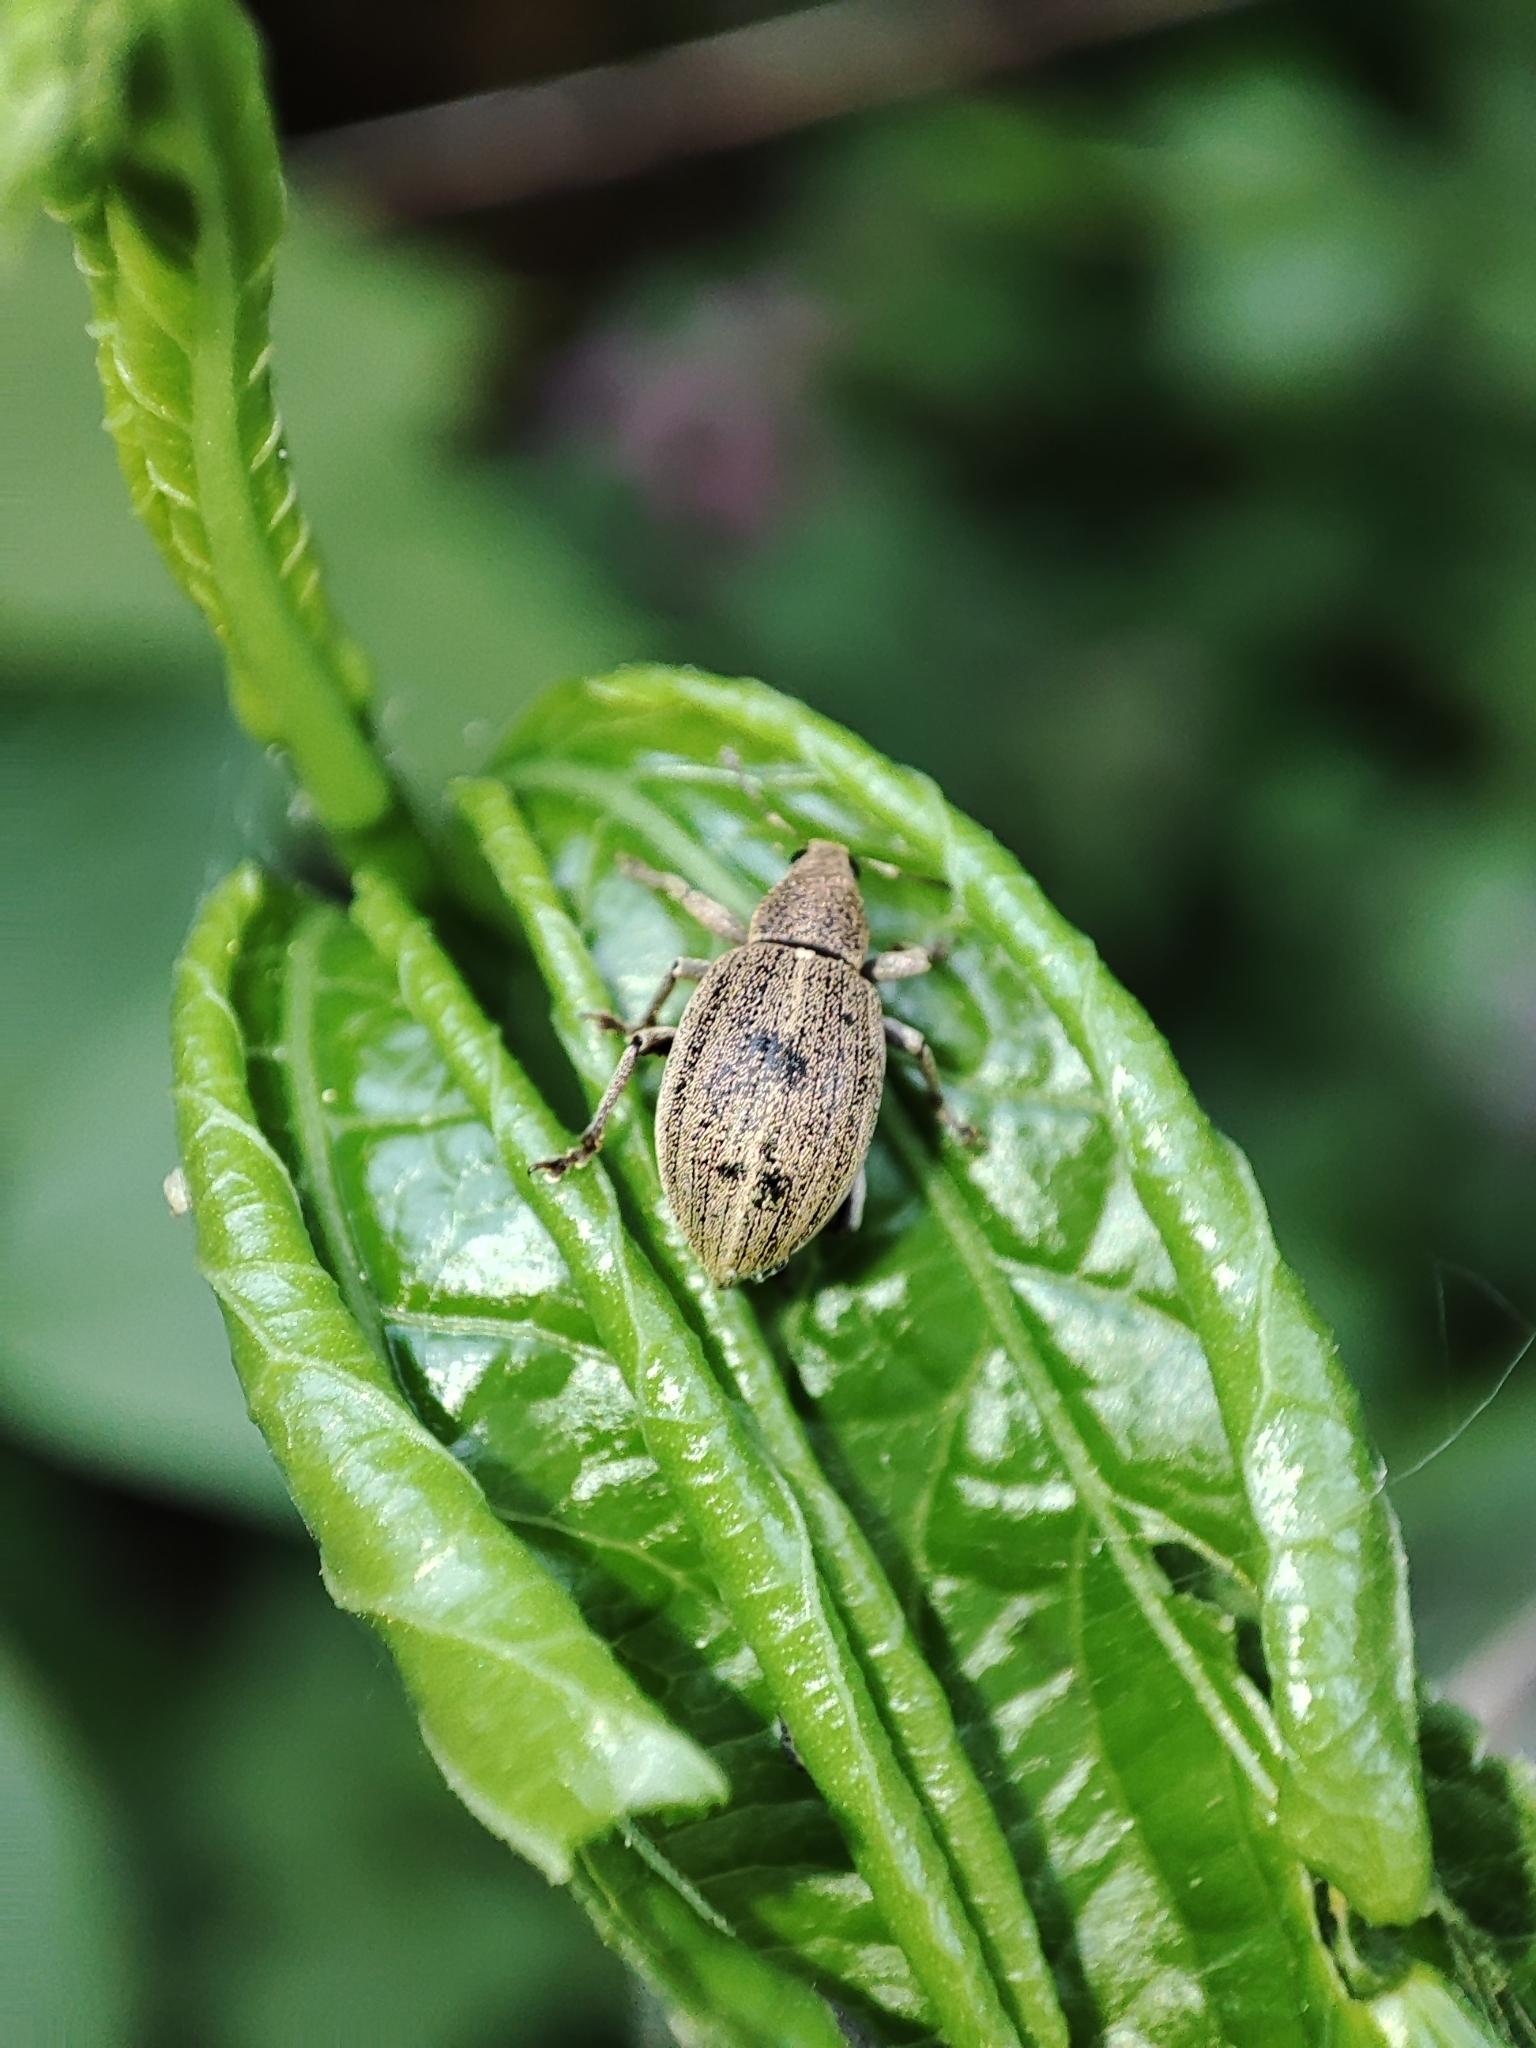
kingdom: Animalia
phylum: Arthropoda
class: Insecta
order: Coleoptera
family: Curculionidae
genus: Sciaphobus
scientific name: Sciaphobus squalidus
